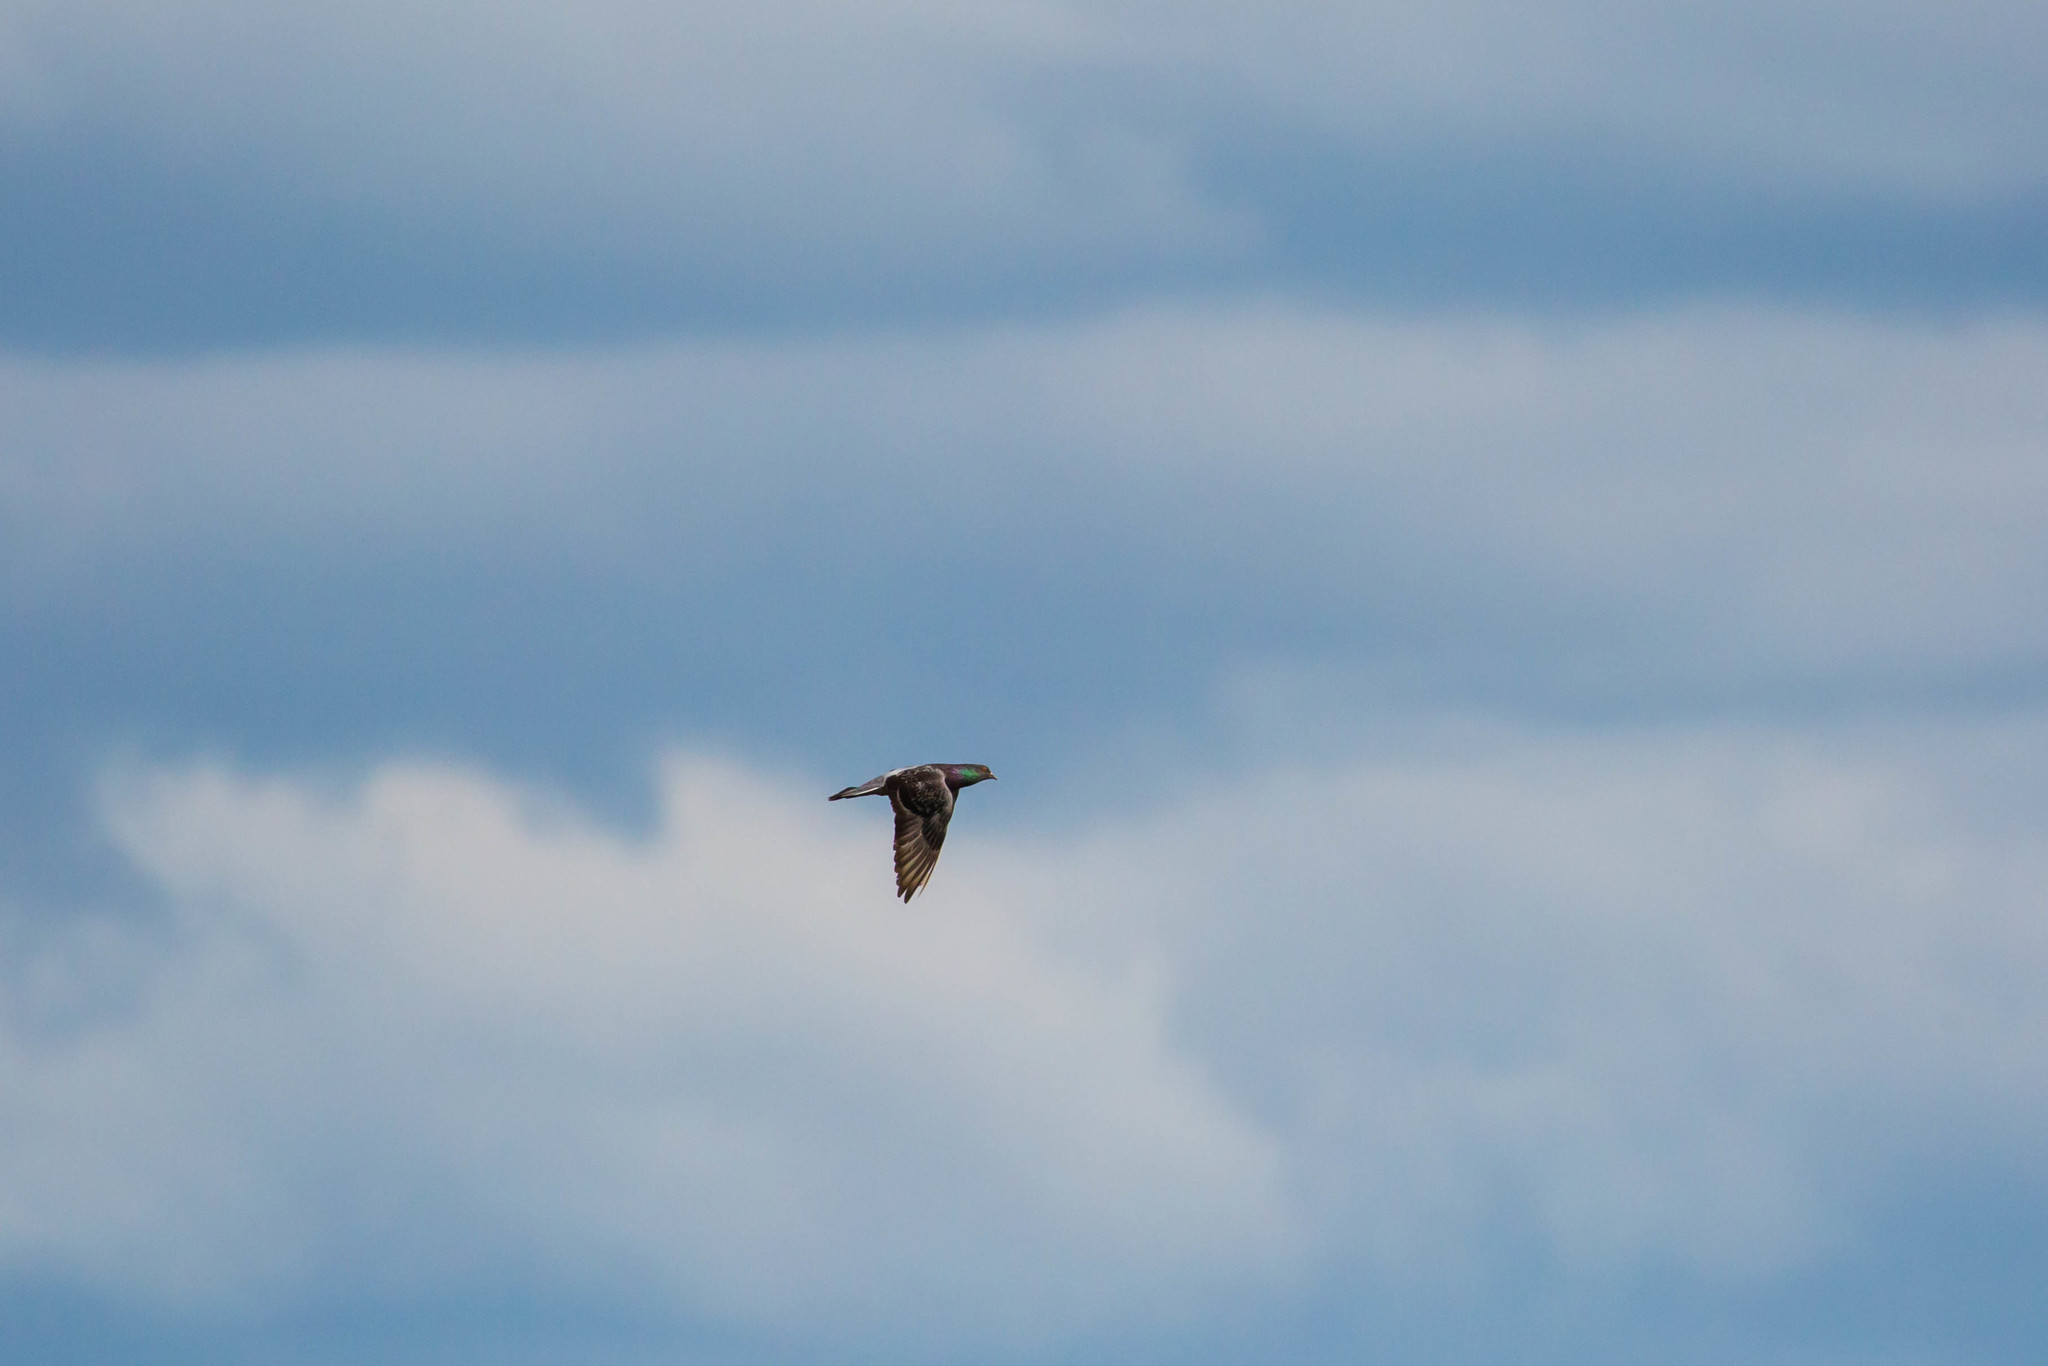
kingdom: Animalia
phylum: Chordata
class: Aves
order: Columbiformes
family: Columbidae
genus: Columba
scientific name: Columba livia
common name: Rock pigeon
